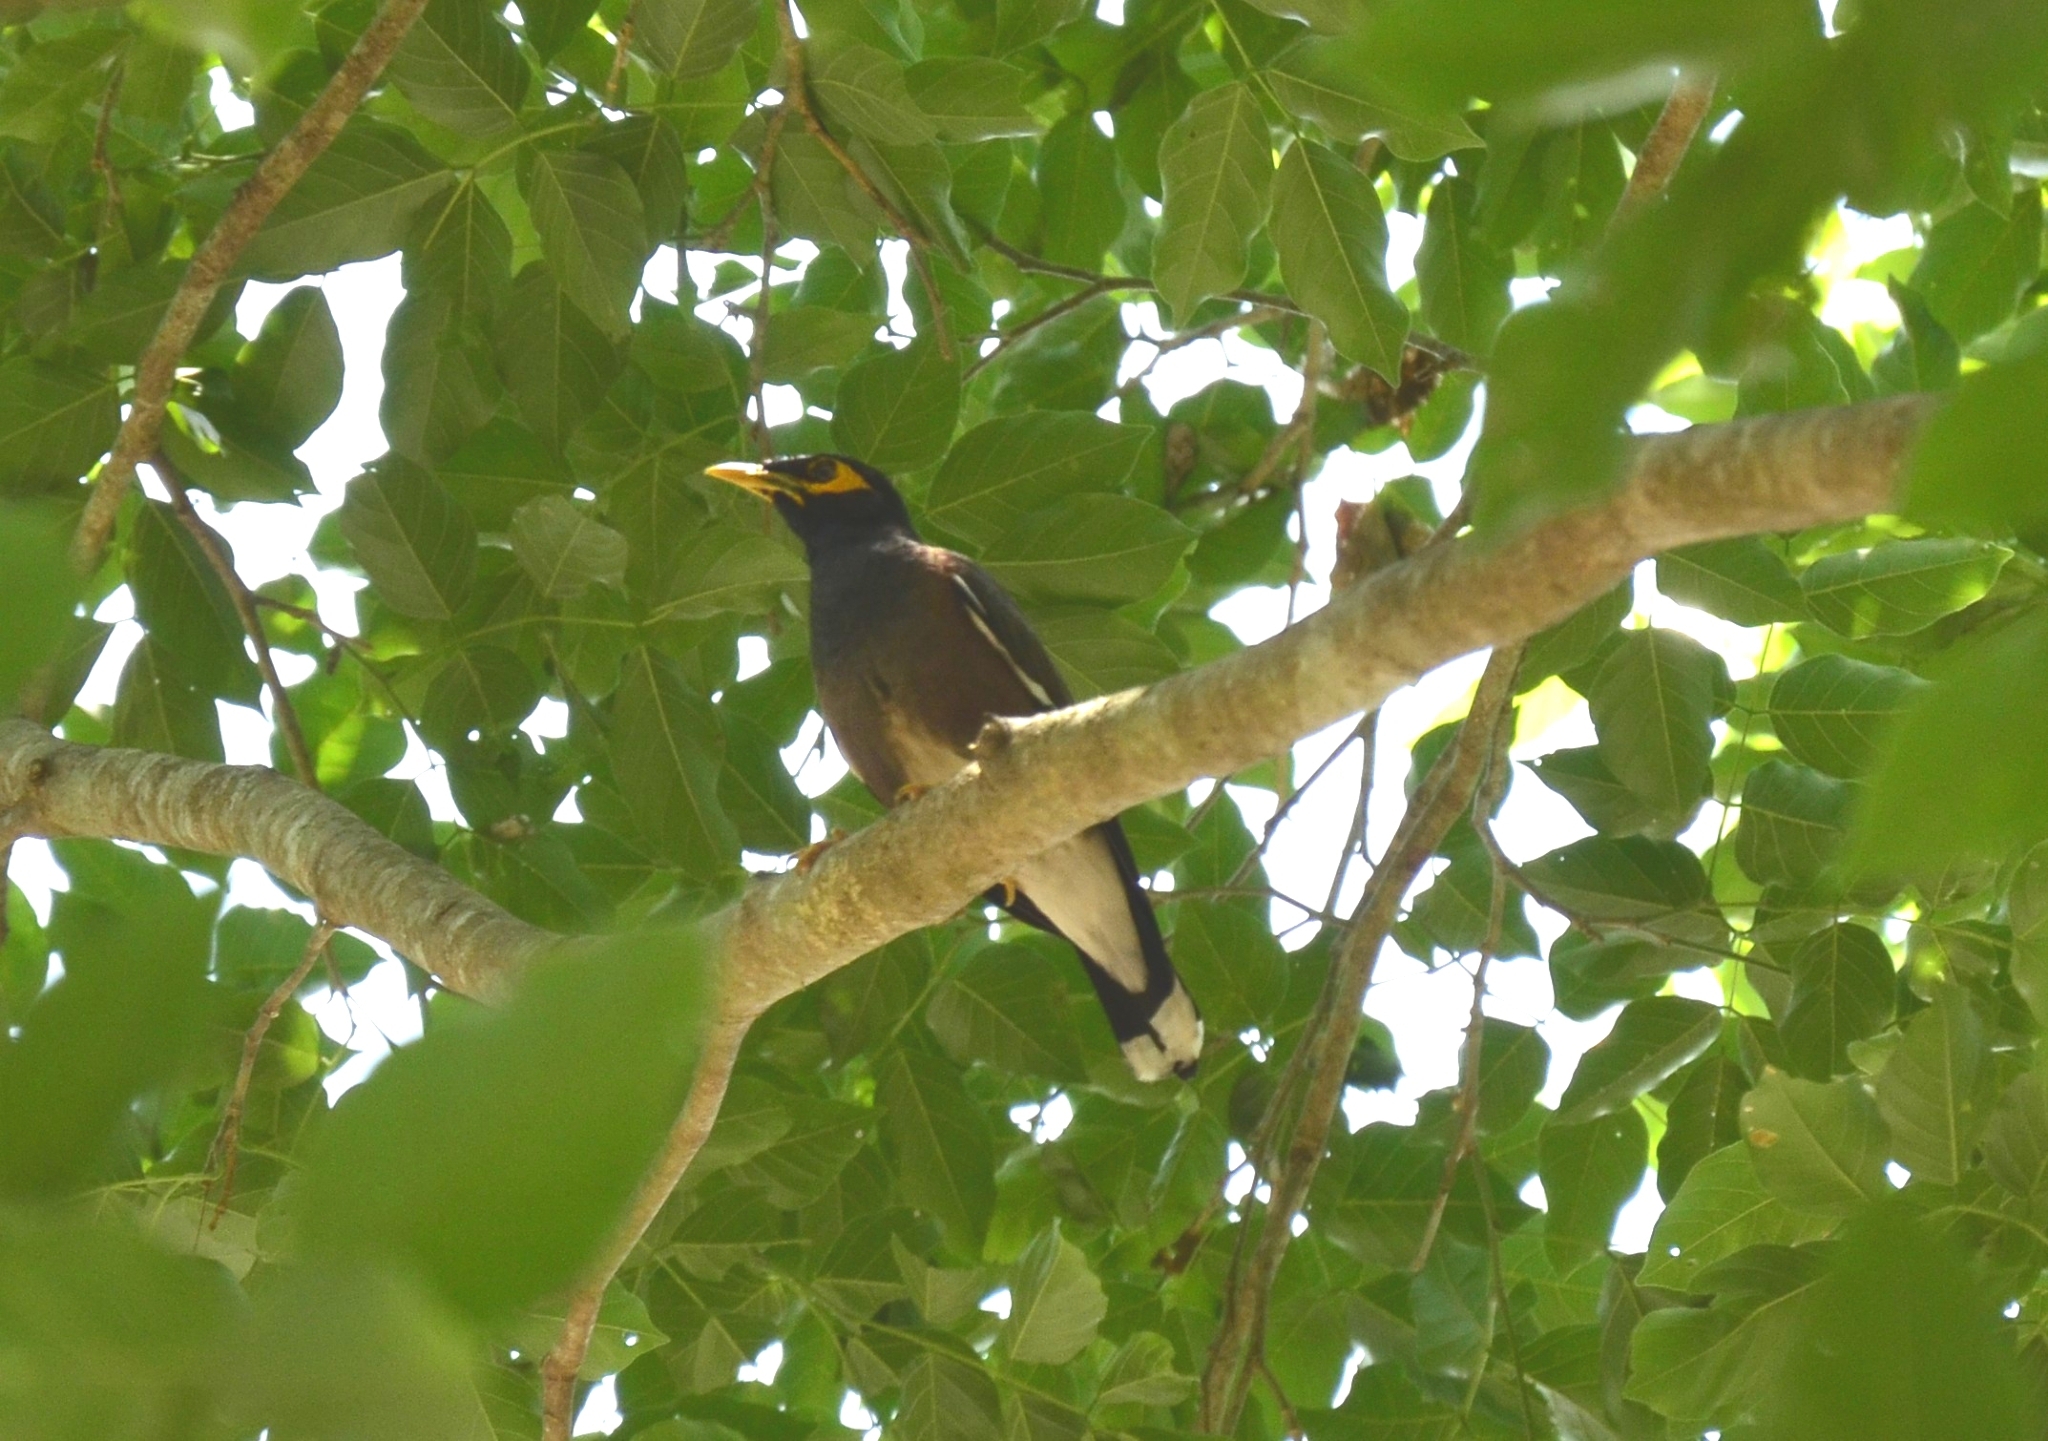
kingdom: Animalia
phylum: Chordata
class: Aves
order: Passeriformes
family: Sturnidae
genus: Acridotheres
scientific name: Acridotheres tristis
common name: Common myna
